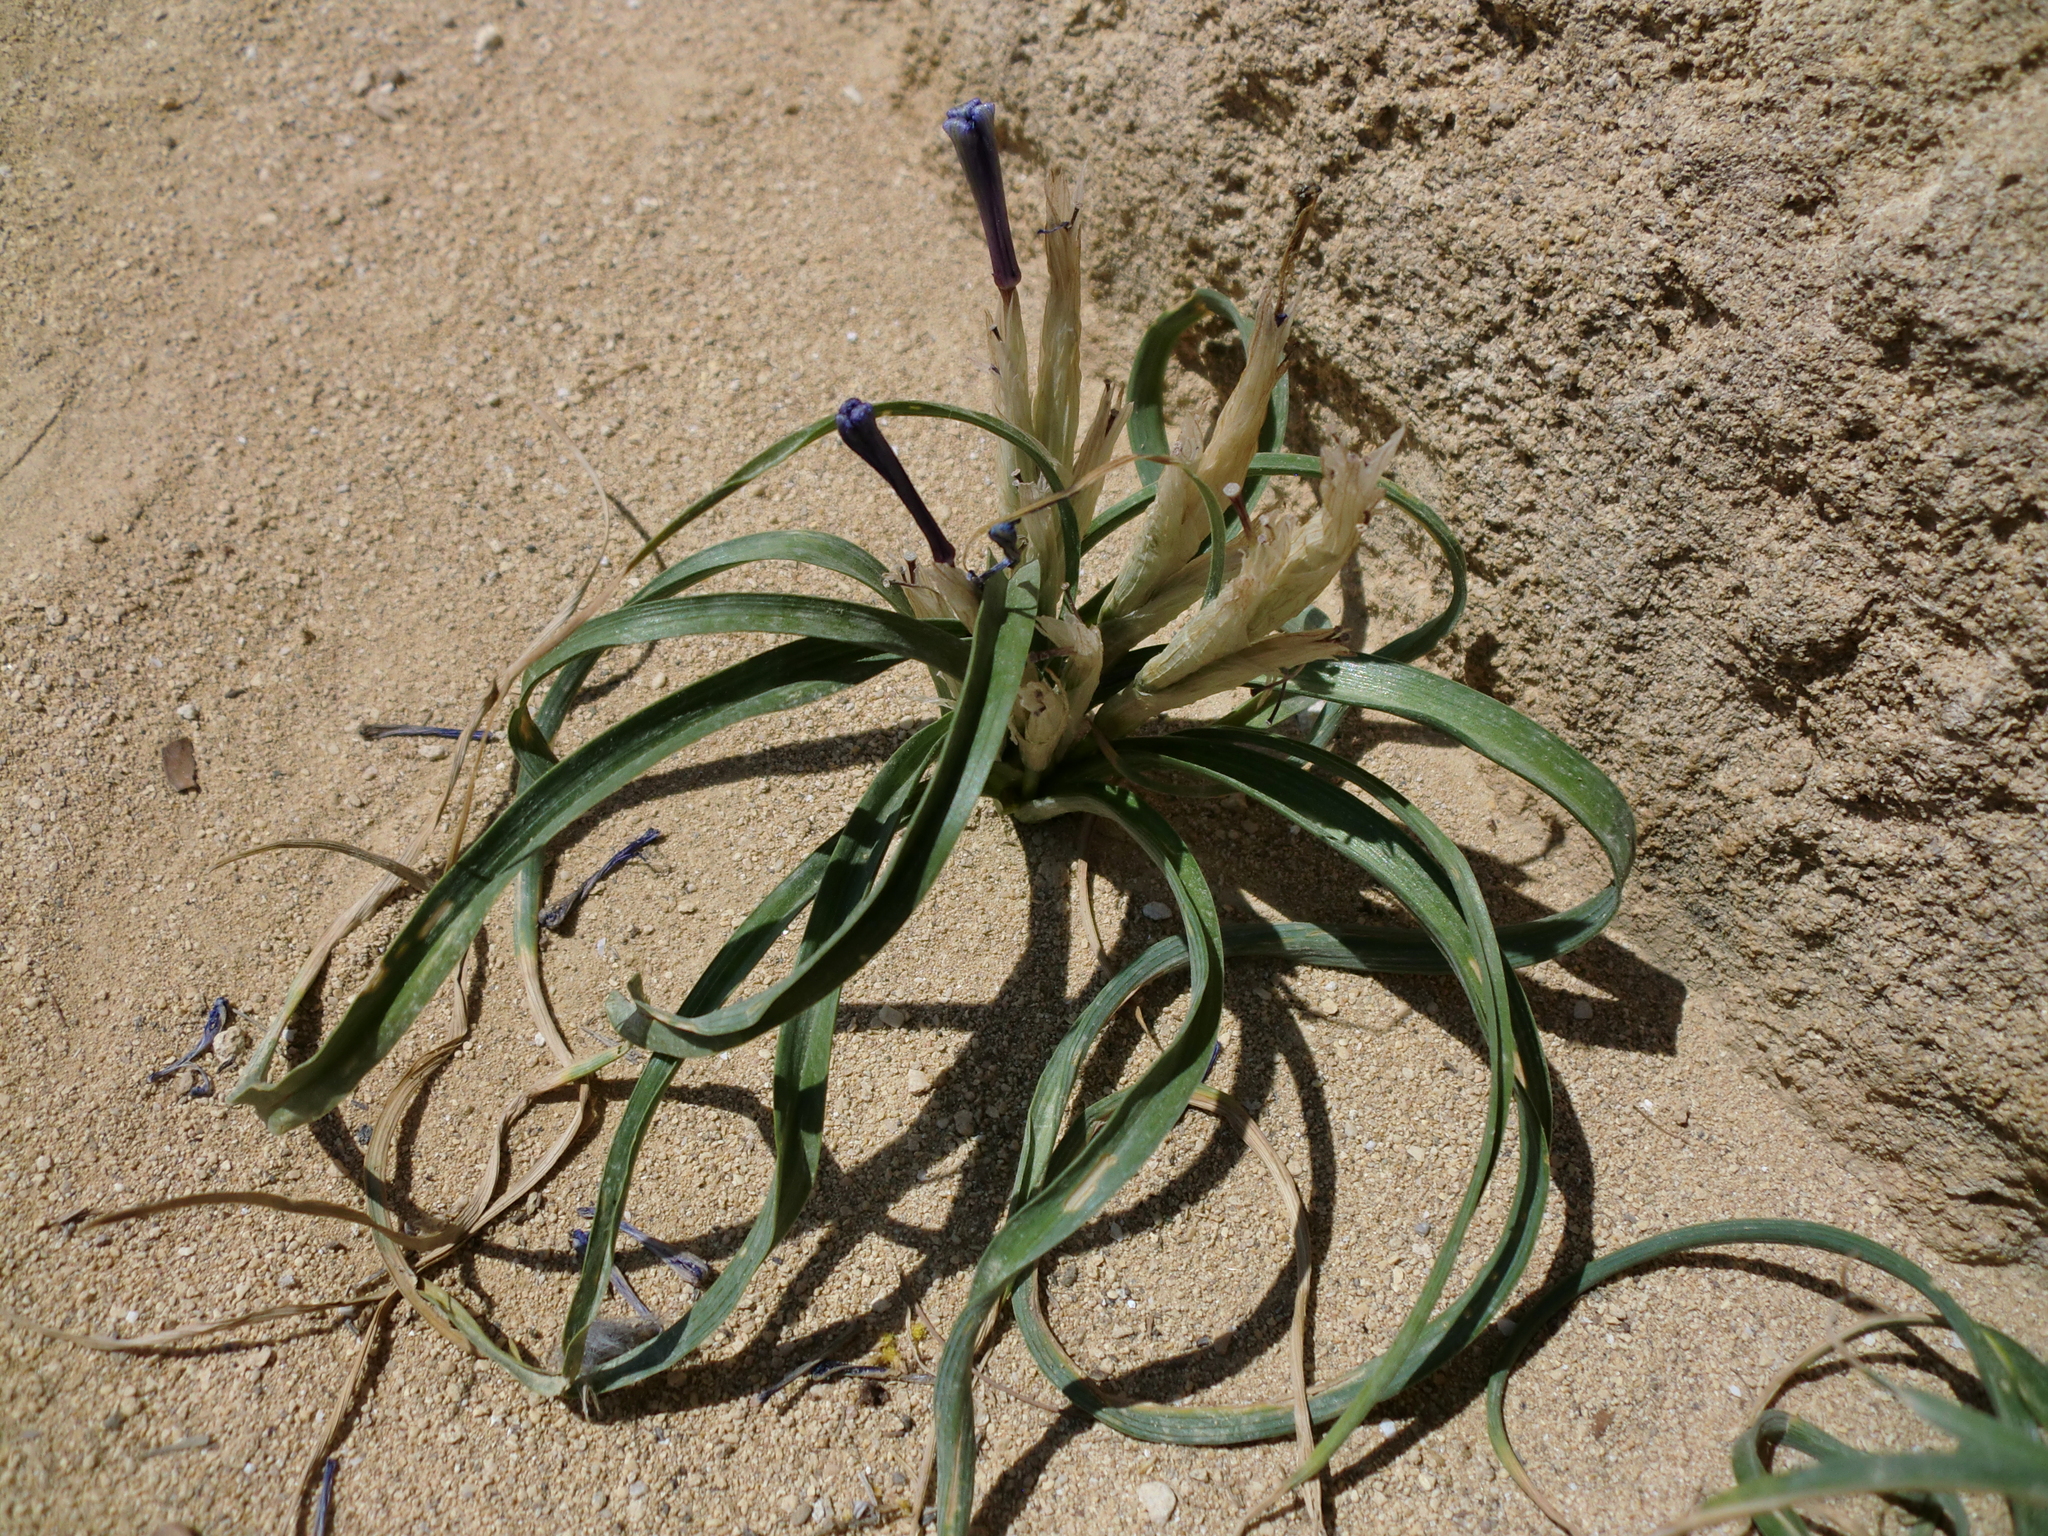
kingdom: Plantae
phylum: Tracheophyta
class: Liliopsida
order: Asparagales
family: Iridaceae
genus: Moraea
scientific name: Moraea sisyrinchium
